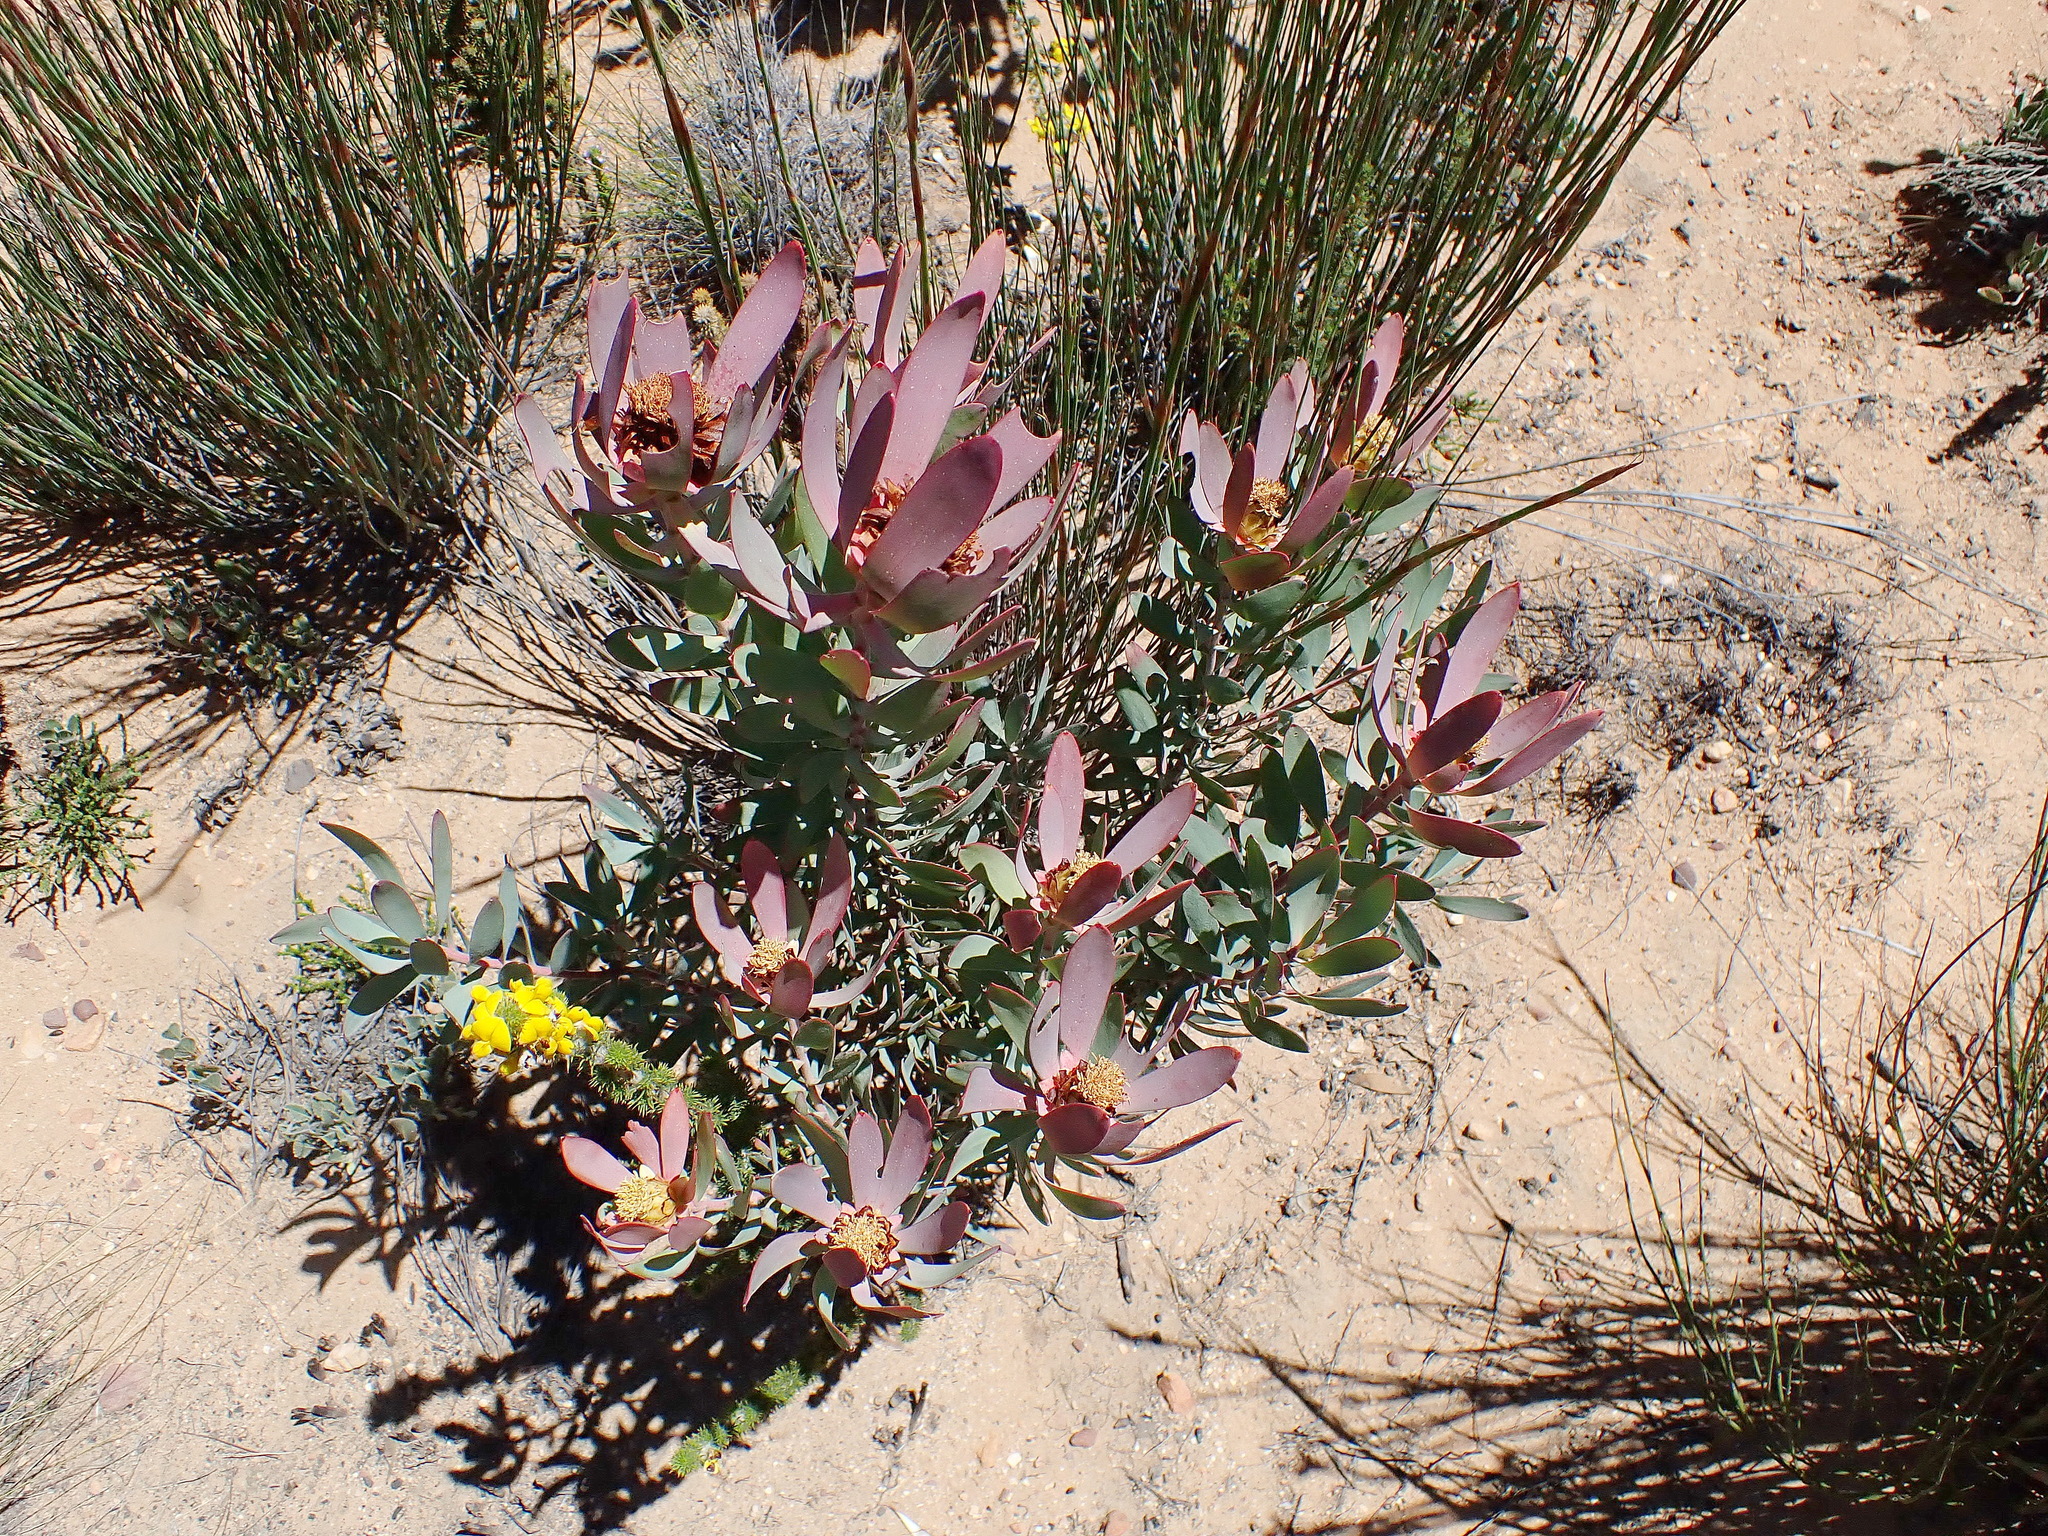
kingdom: Plantae
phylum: Tracheophyta
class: Magnoliopsida
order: Proteales
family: Proteaceae
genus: Leucadendron
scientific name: Leucadendron tinctum
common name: Spicy conebush
